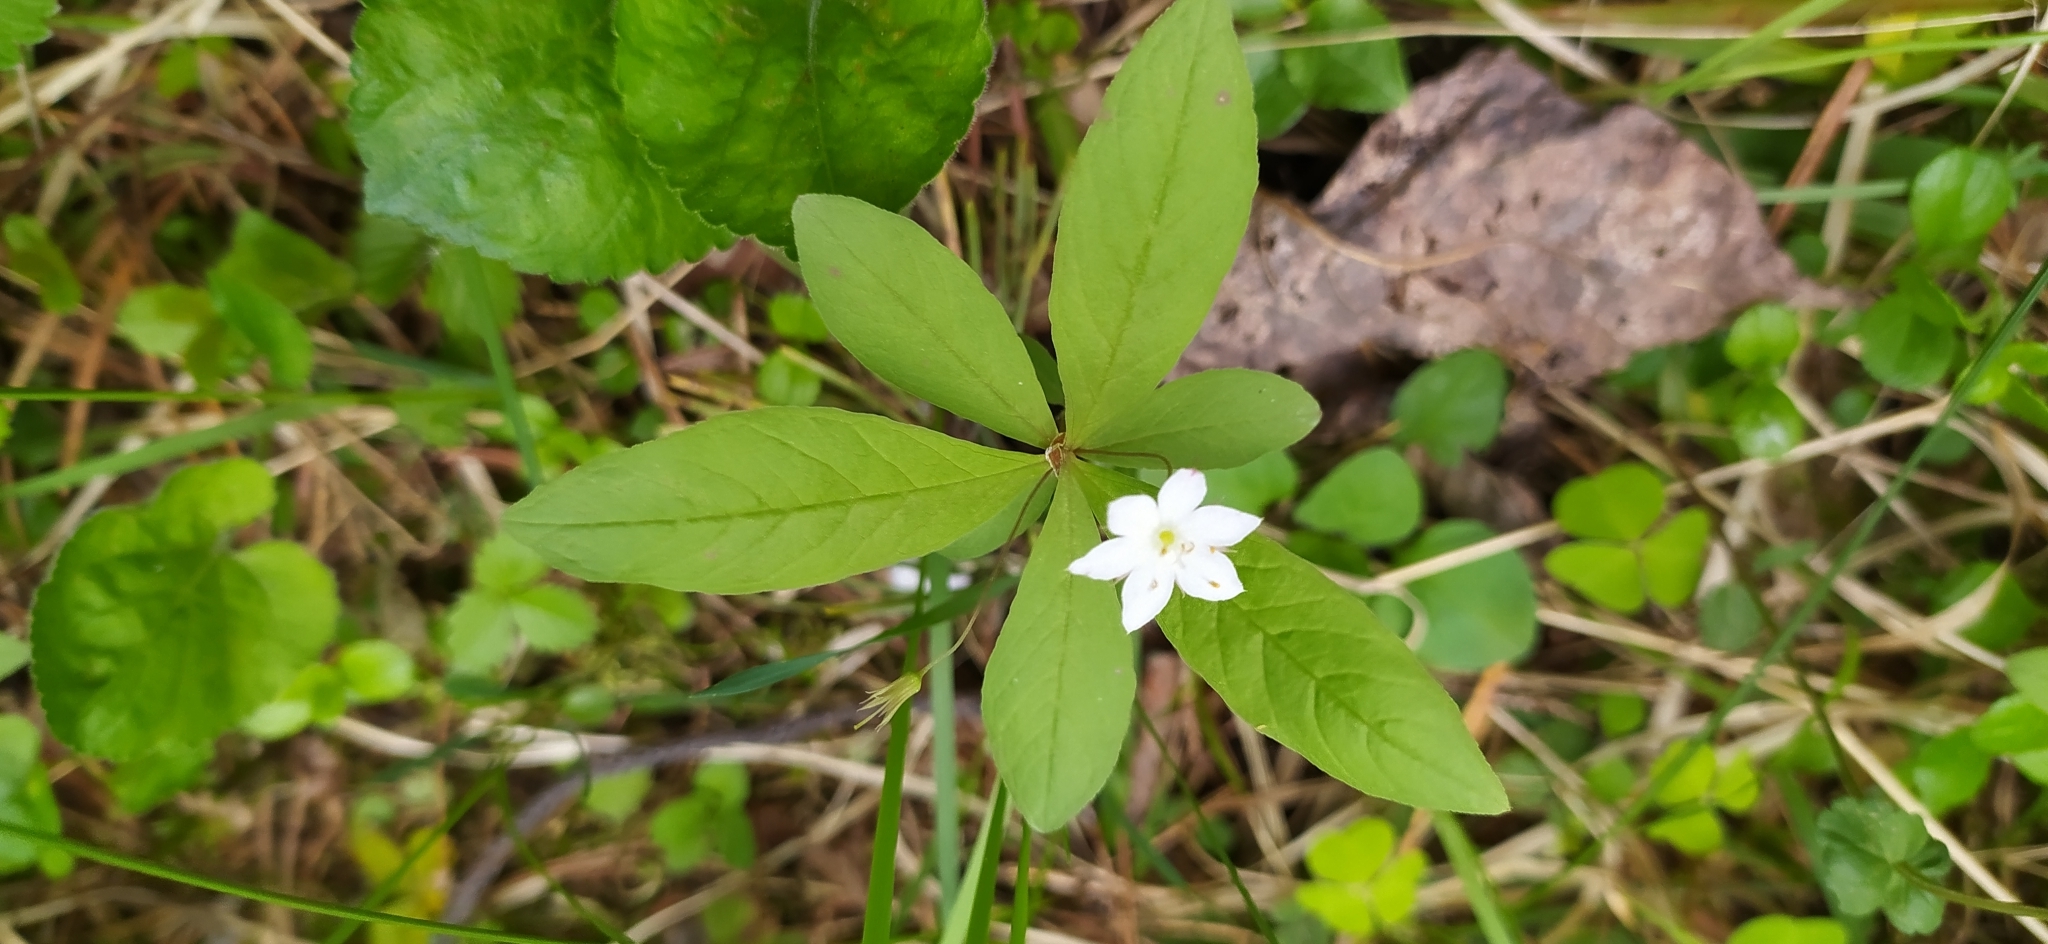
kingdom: Plantae
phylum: Tracheophyta
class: Magnoliopsida
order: Ericales
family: Primulaceae
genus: Lysimachia
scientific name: Lysimachia europaea
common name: Arctic starflower
